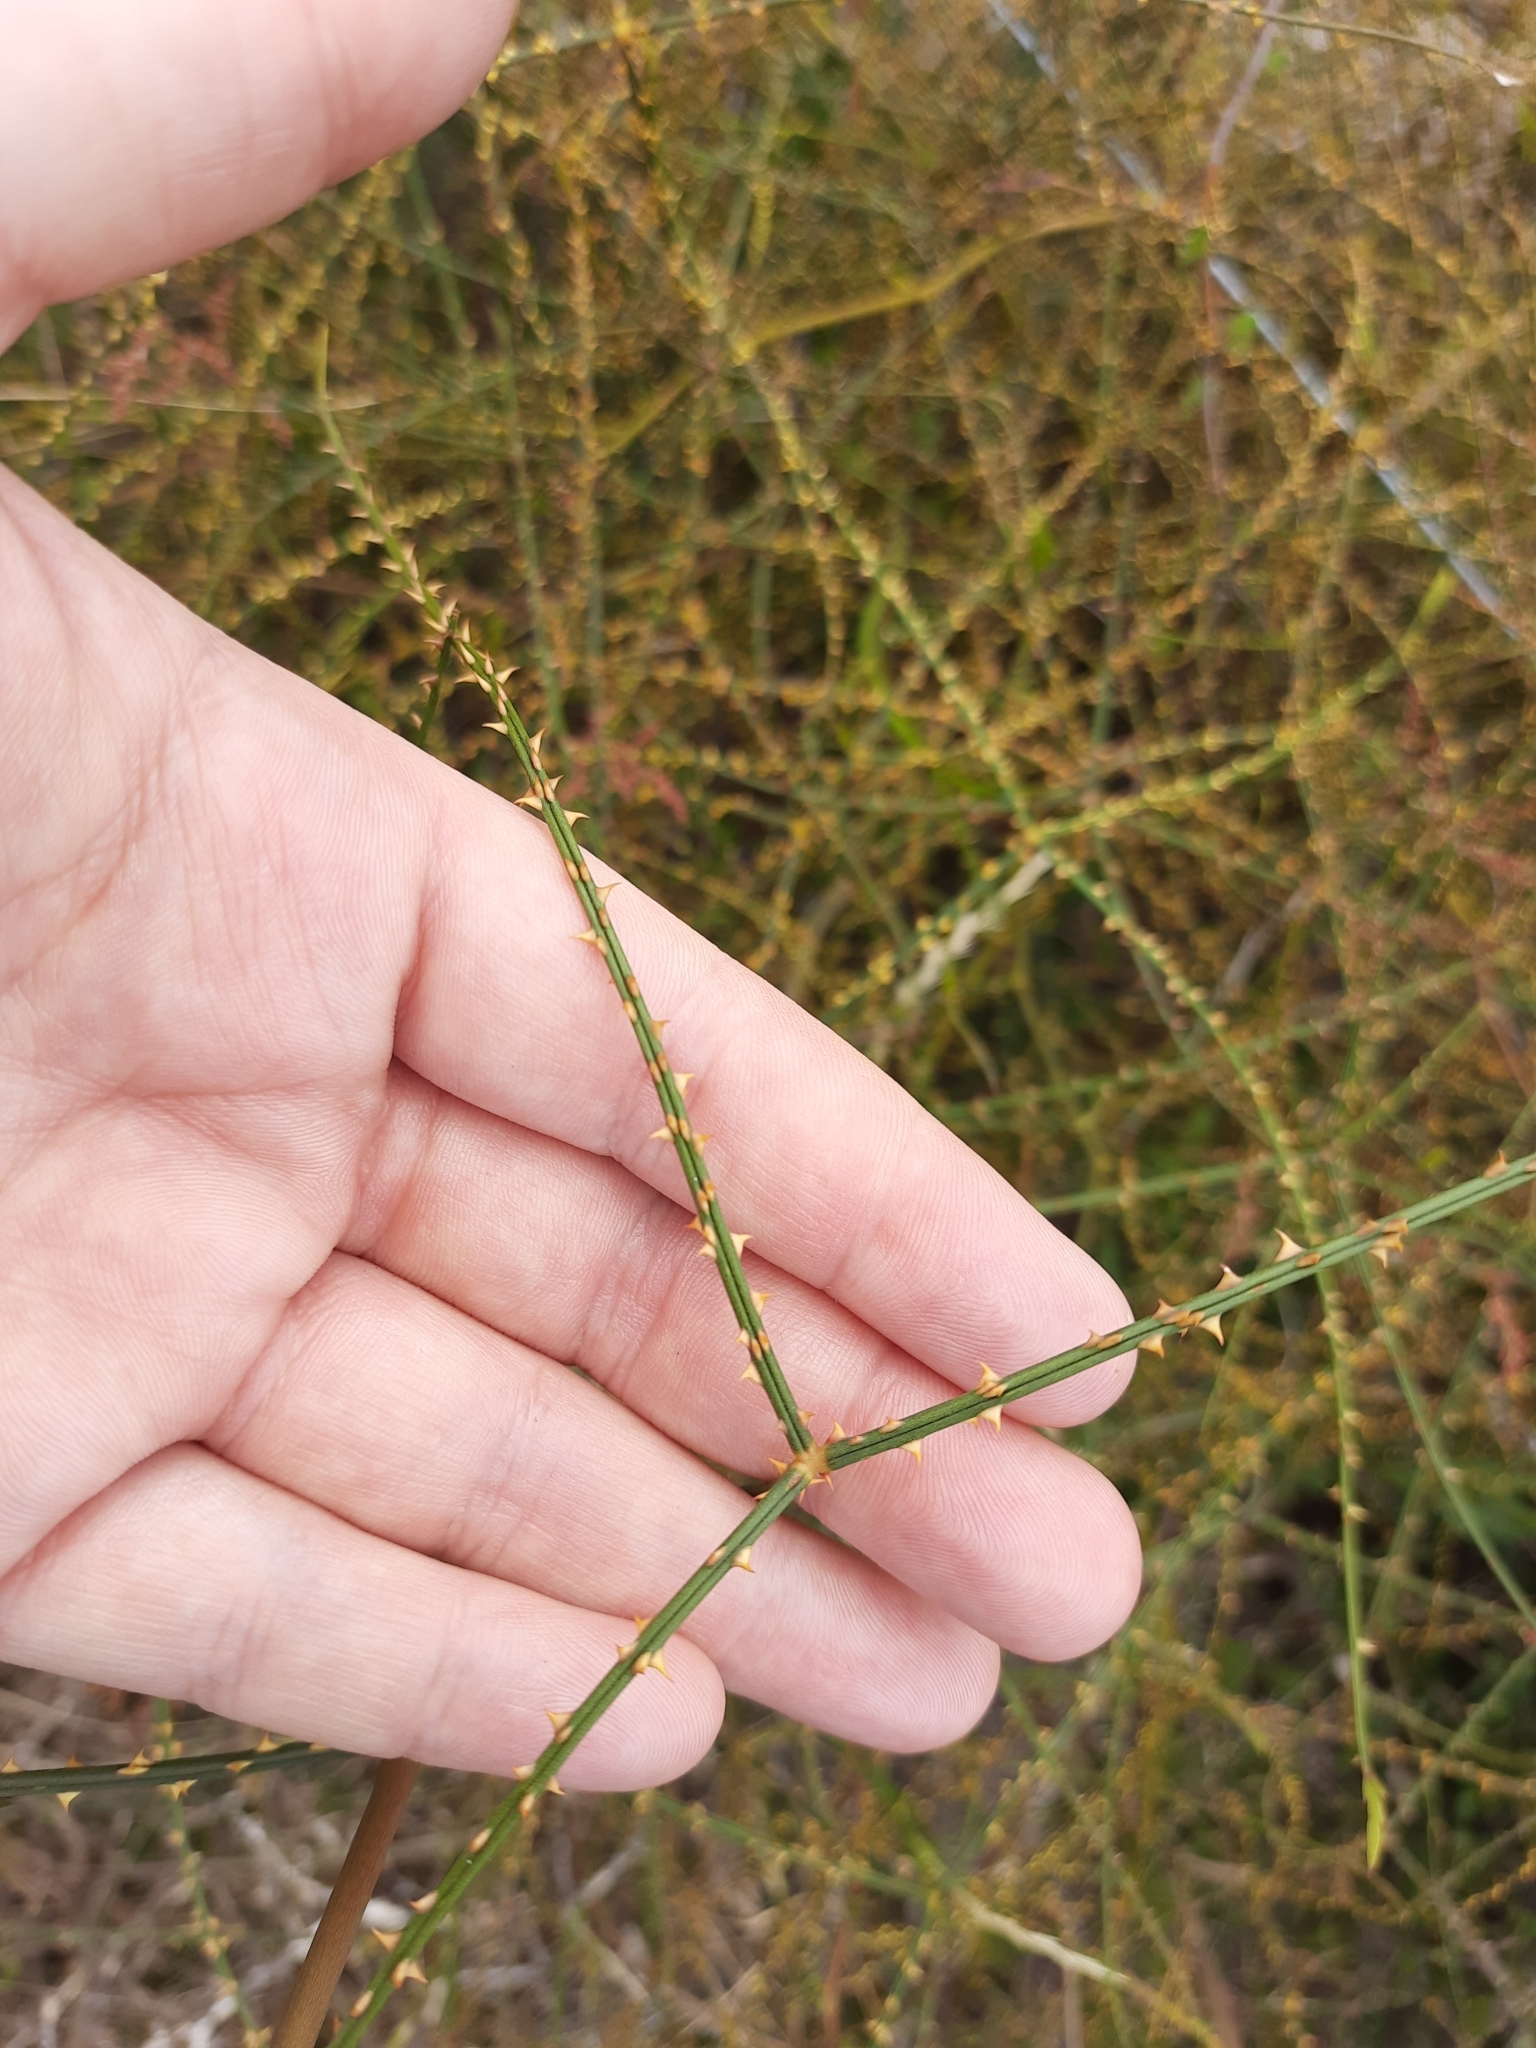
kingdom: Plantae
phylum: Tracheophyta
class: Magnoliopsida
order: Rosales
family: Rosaceae
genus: Rubus
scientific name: Rubus squarrosus
